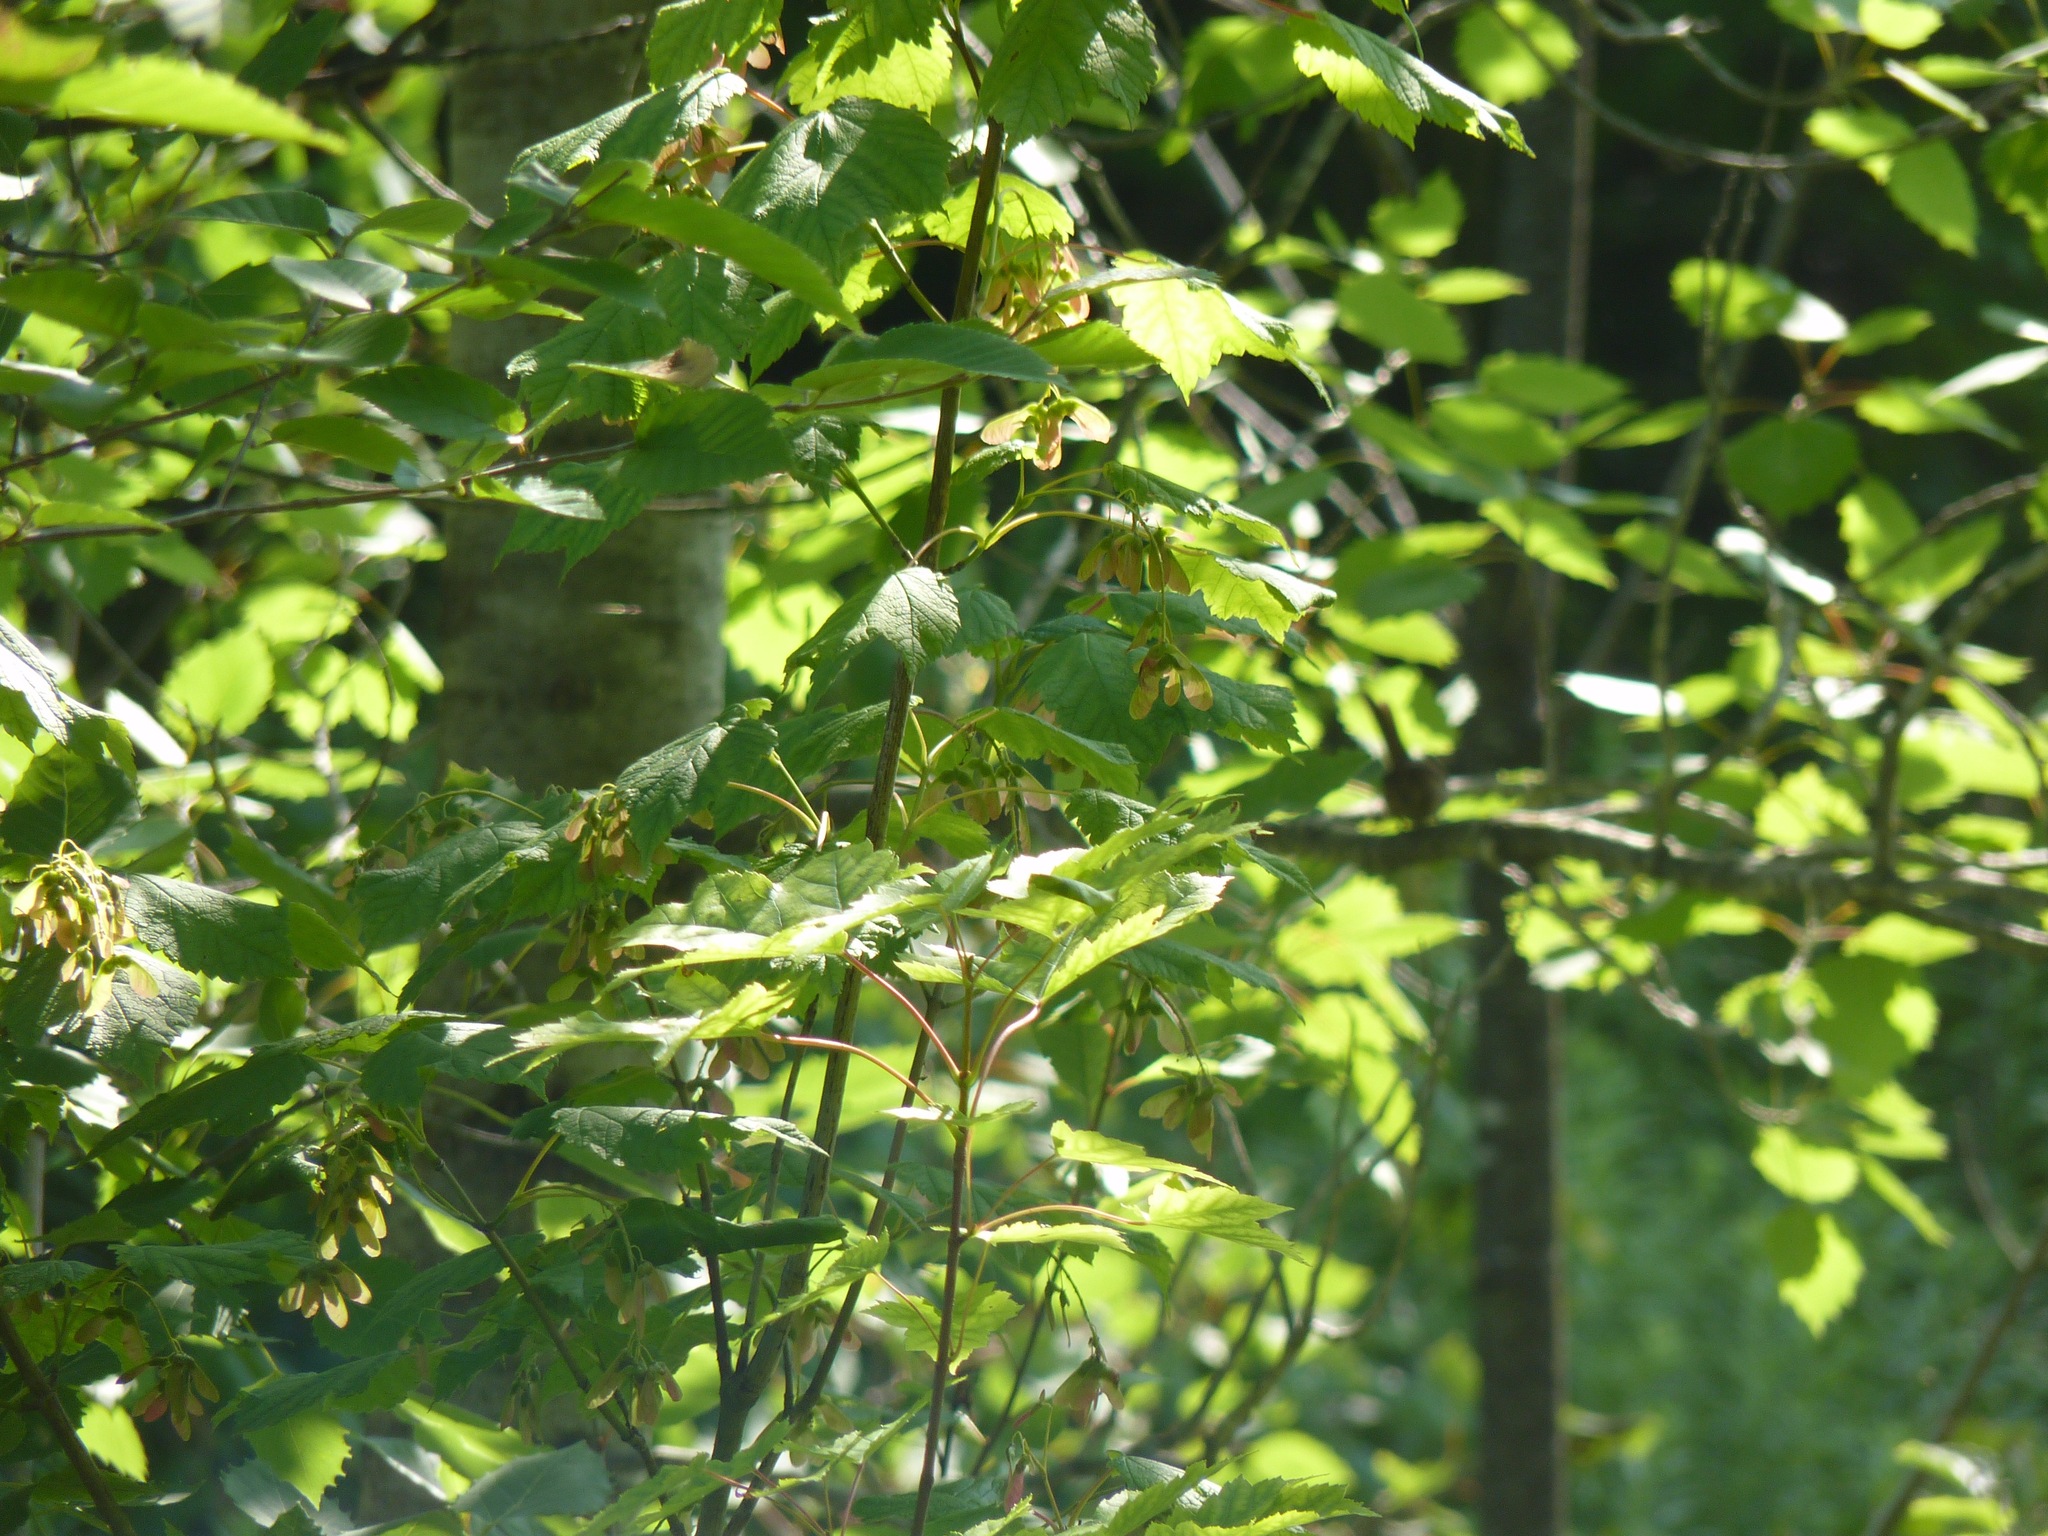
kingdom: Plantae
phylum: Tracheophyta
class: Magnoliopsida
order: Sapindales
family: Sapindaceae
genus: Acer
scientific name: Acer spicatum
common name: Mountain maple
